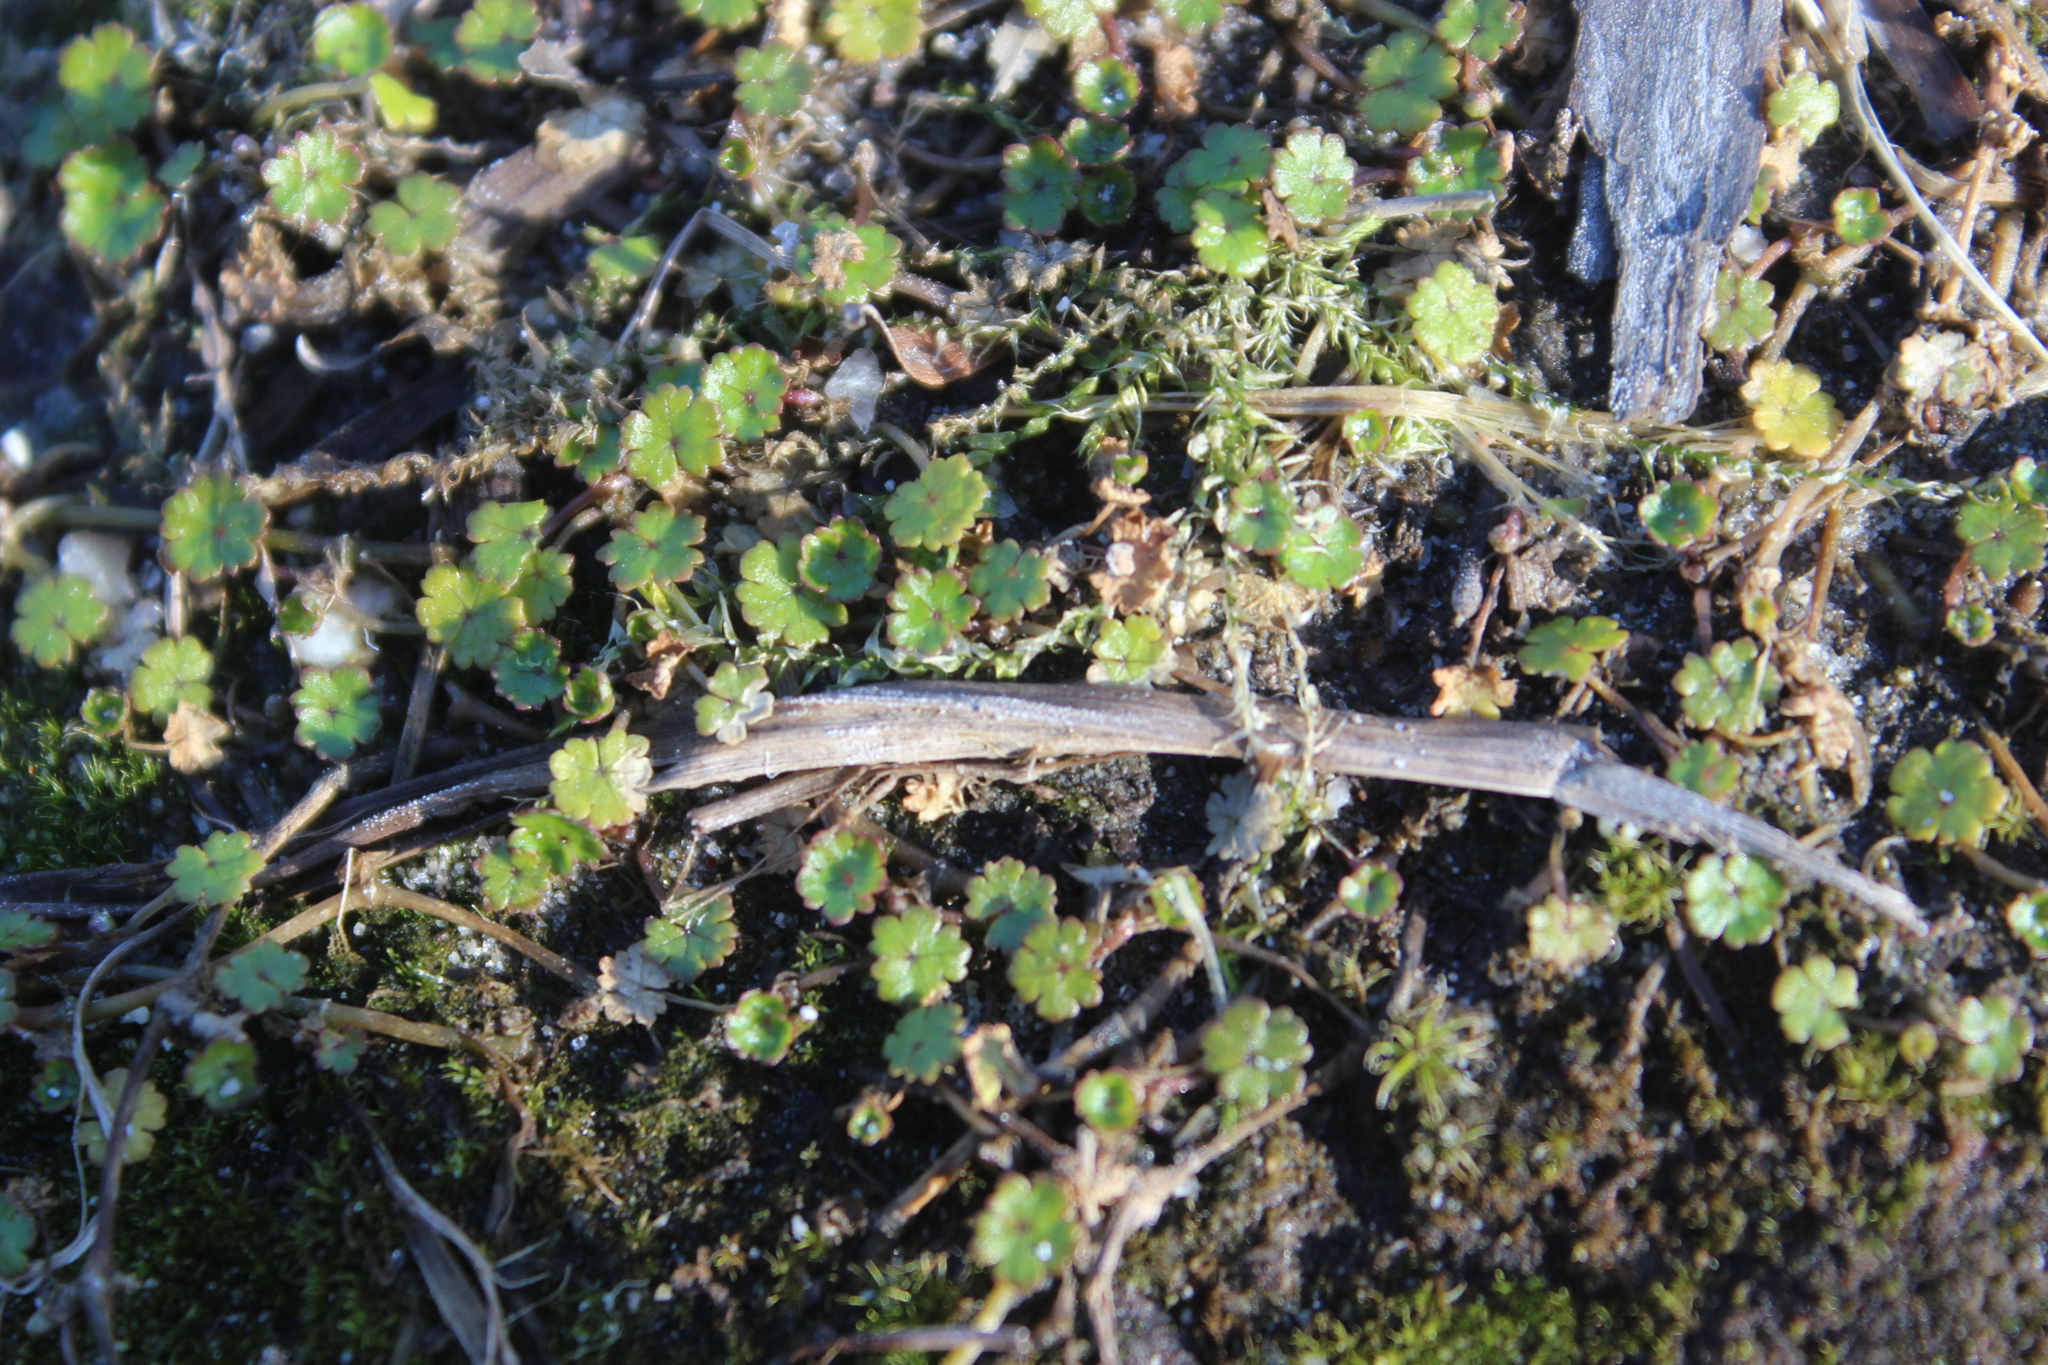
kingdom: Plantae
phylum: Tracheophyta
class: Magnoliopsida
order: Apiales
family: Araliaceae
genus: Hydrocotyle
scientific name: Hydrocotyle microphylla
